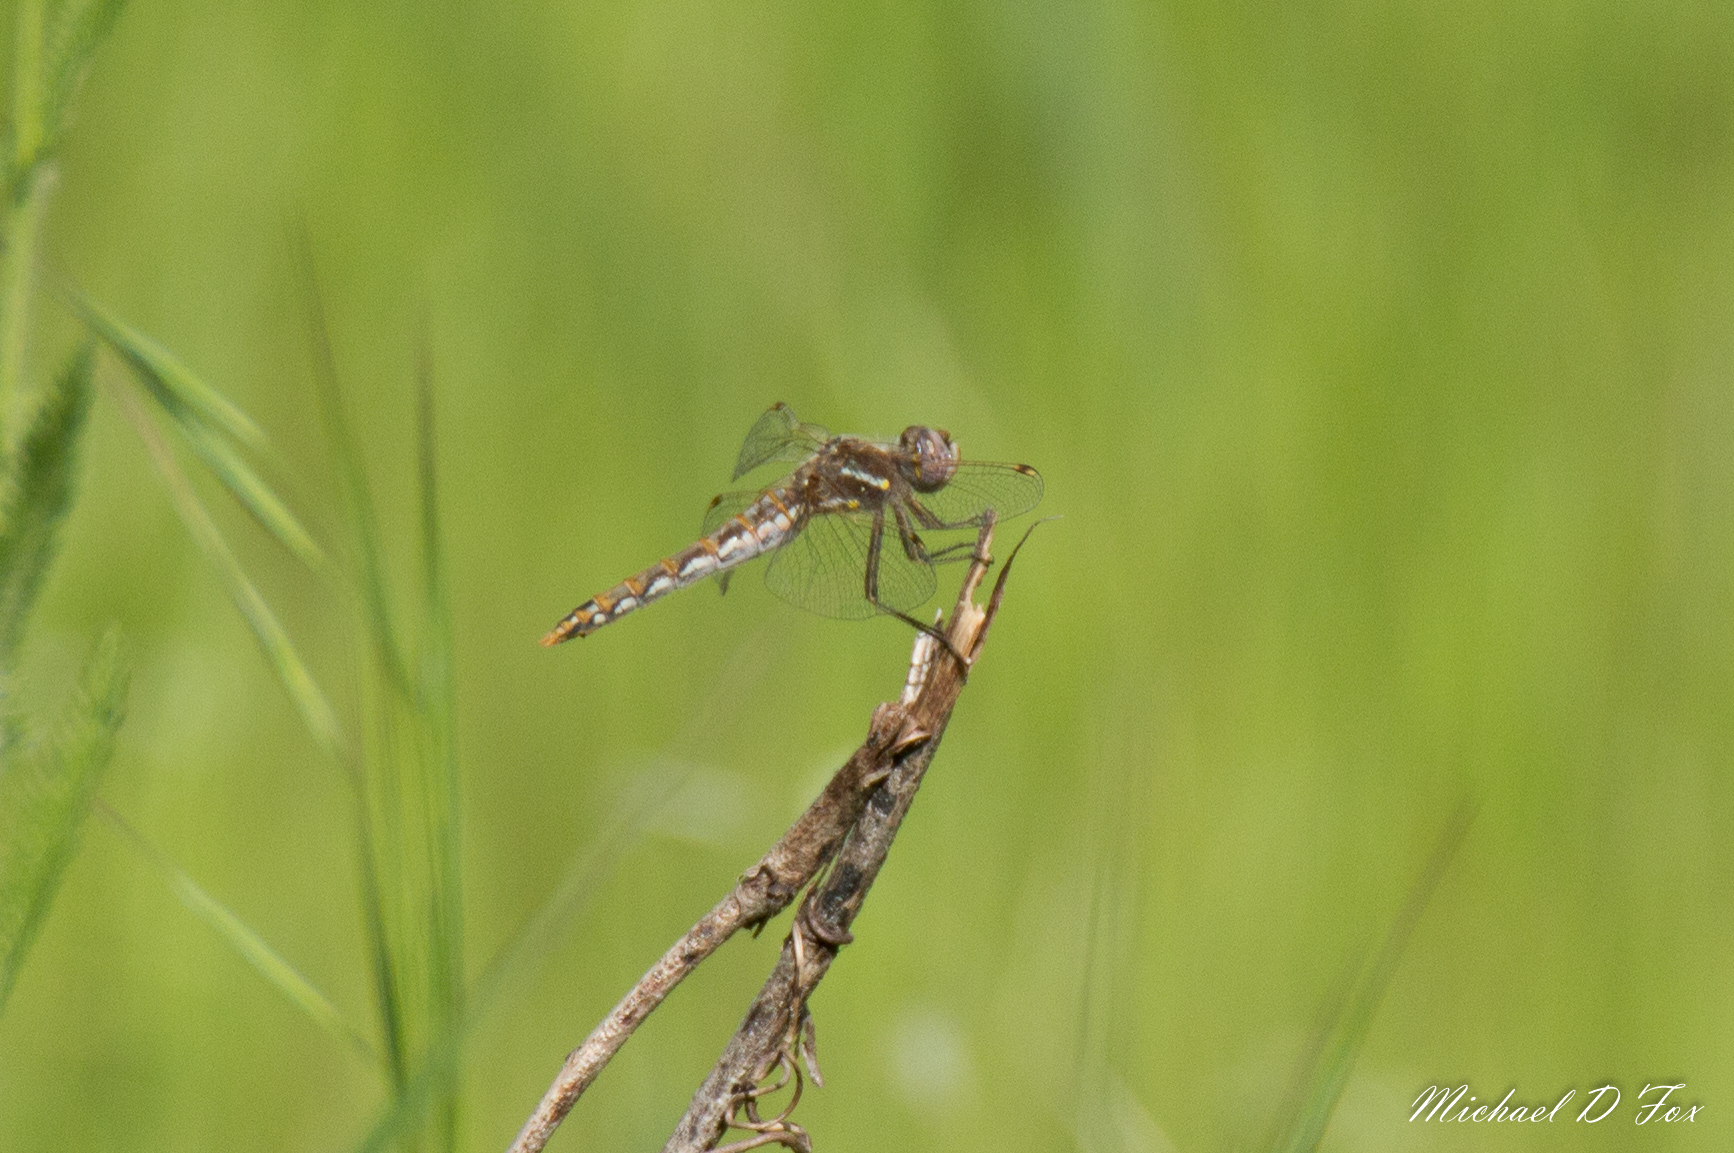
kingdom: Animalia
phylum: Arthropoda
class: Insecta
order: Odonata
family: Libellulidae
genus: Sympetrum
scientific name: Sympetrum corruptum
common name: Variegated meadowhawk
